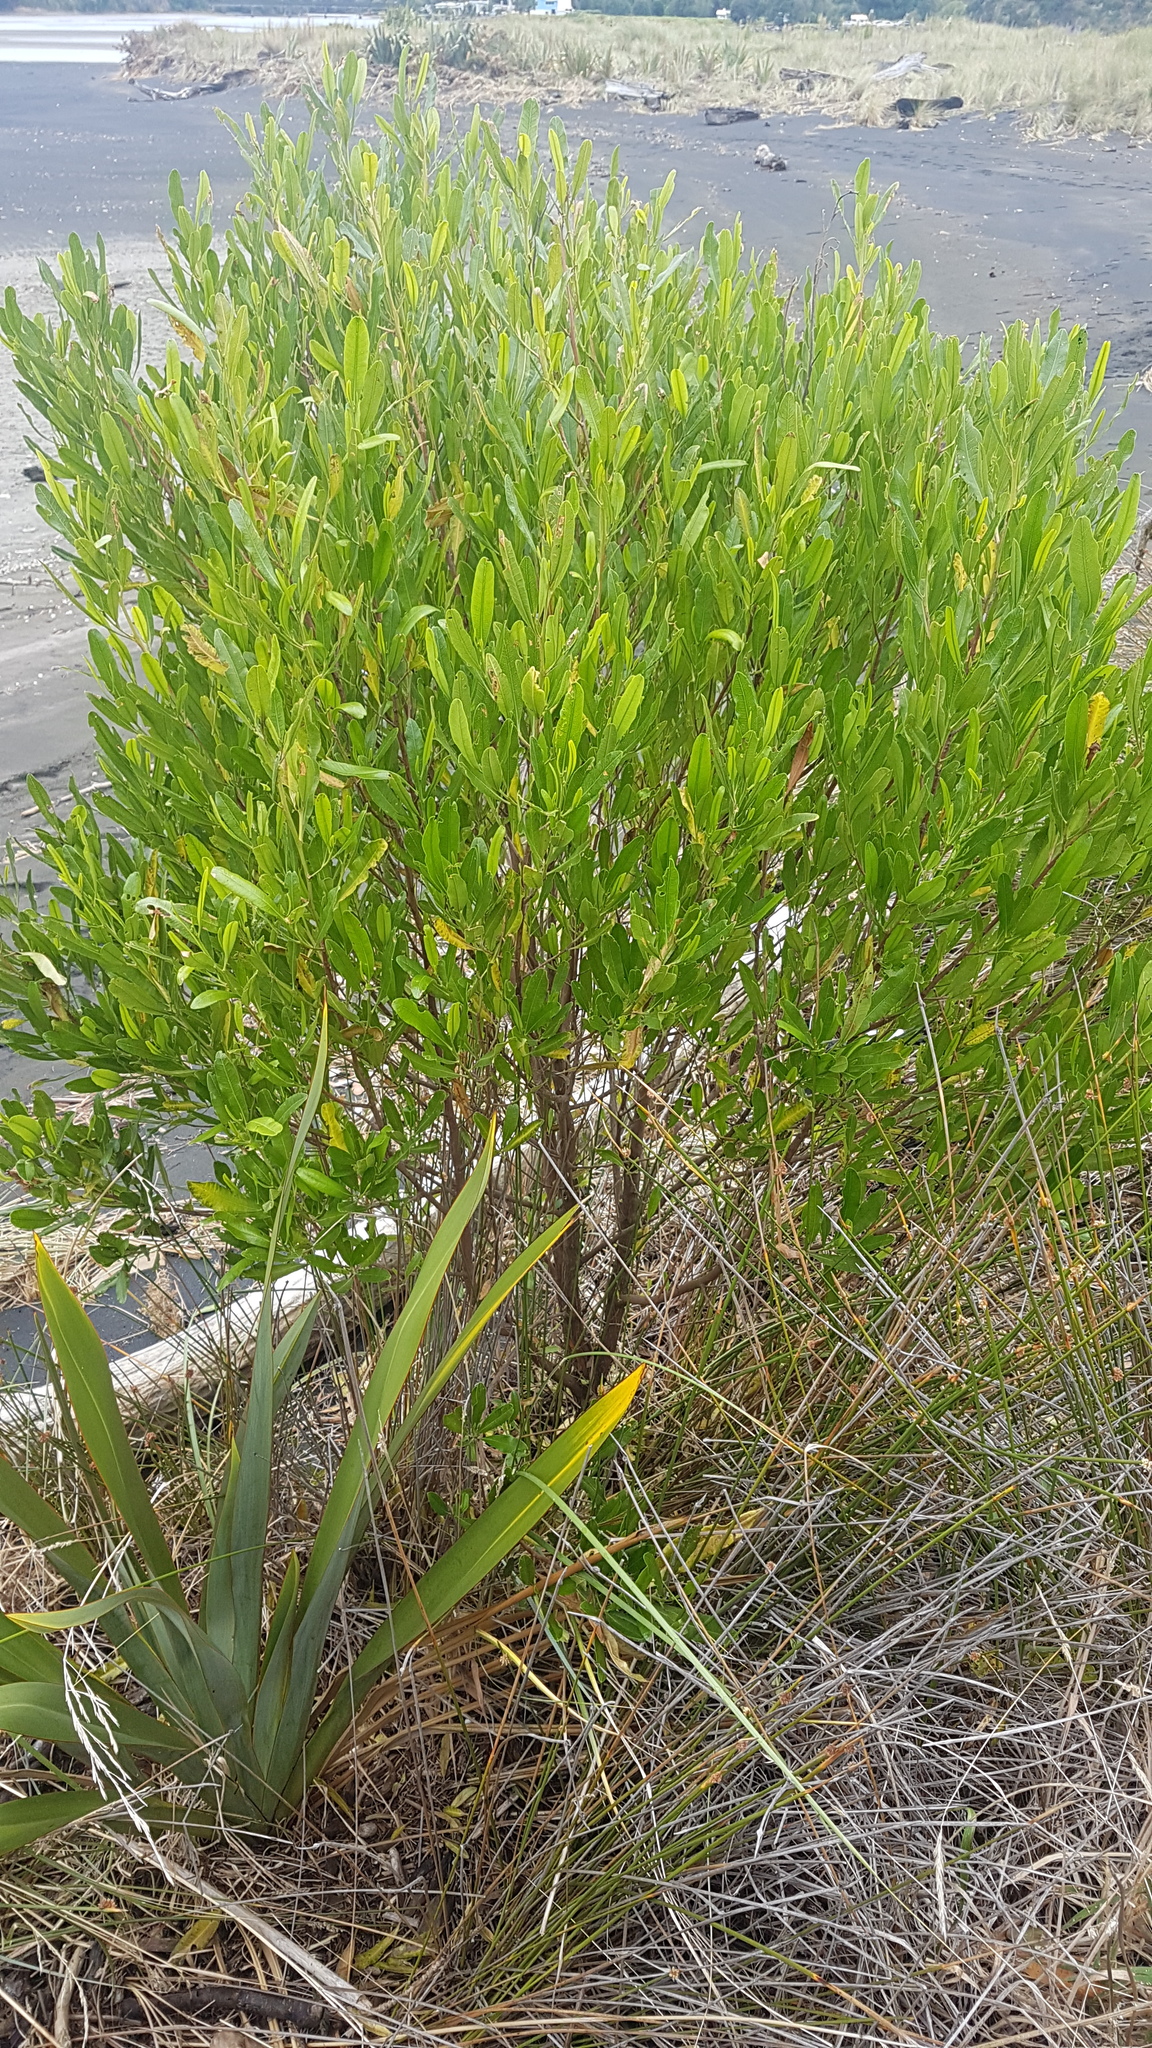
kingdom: Plantae
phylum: Tracheophyta
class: Magnoliopsida
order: Sapindales
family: Sapindaceae
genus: Dodonaea
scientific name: Dodonaea viscosa
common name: Hopbush
